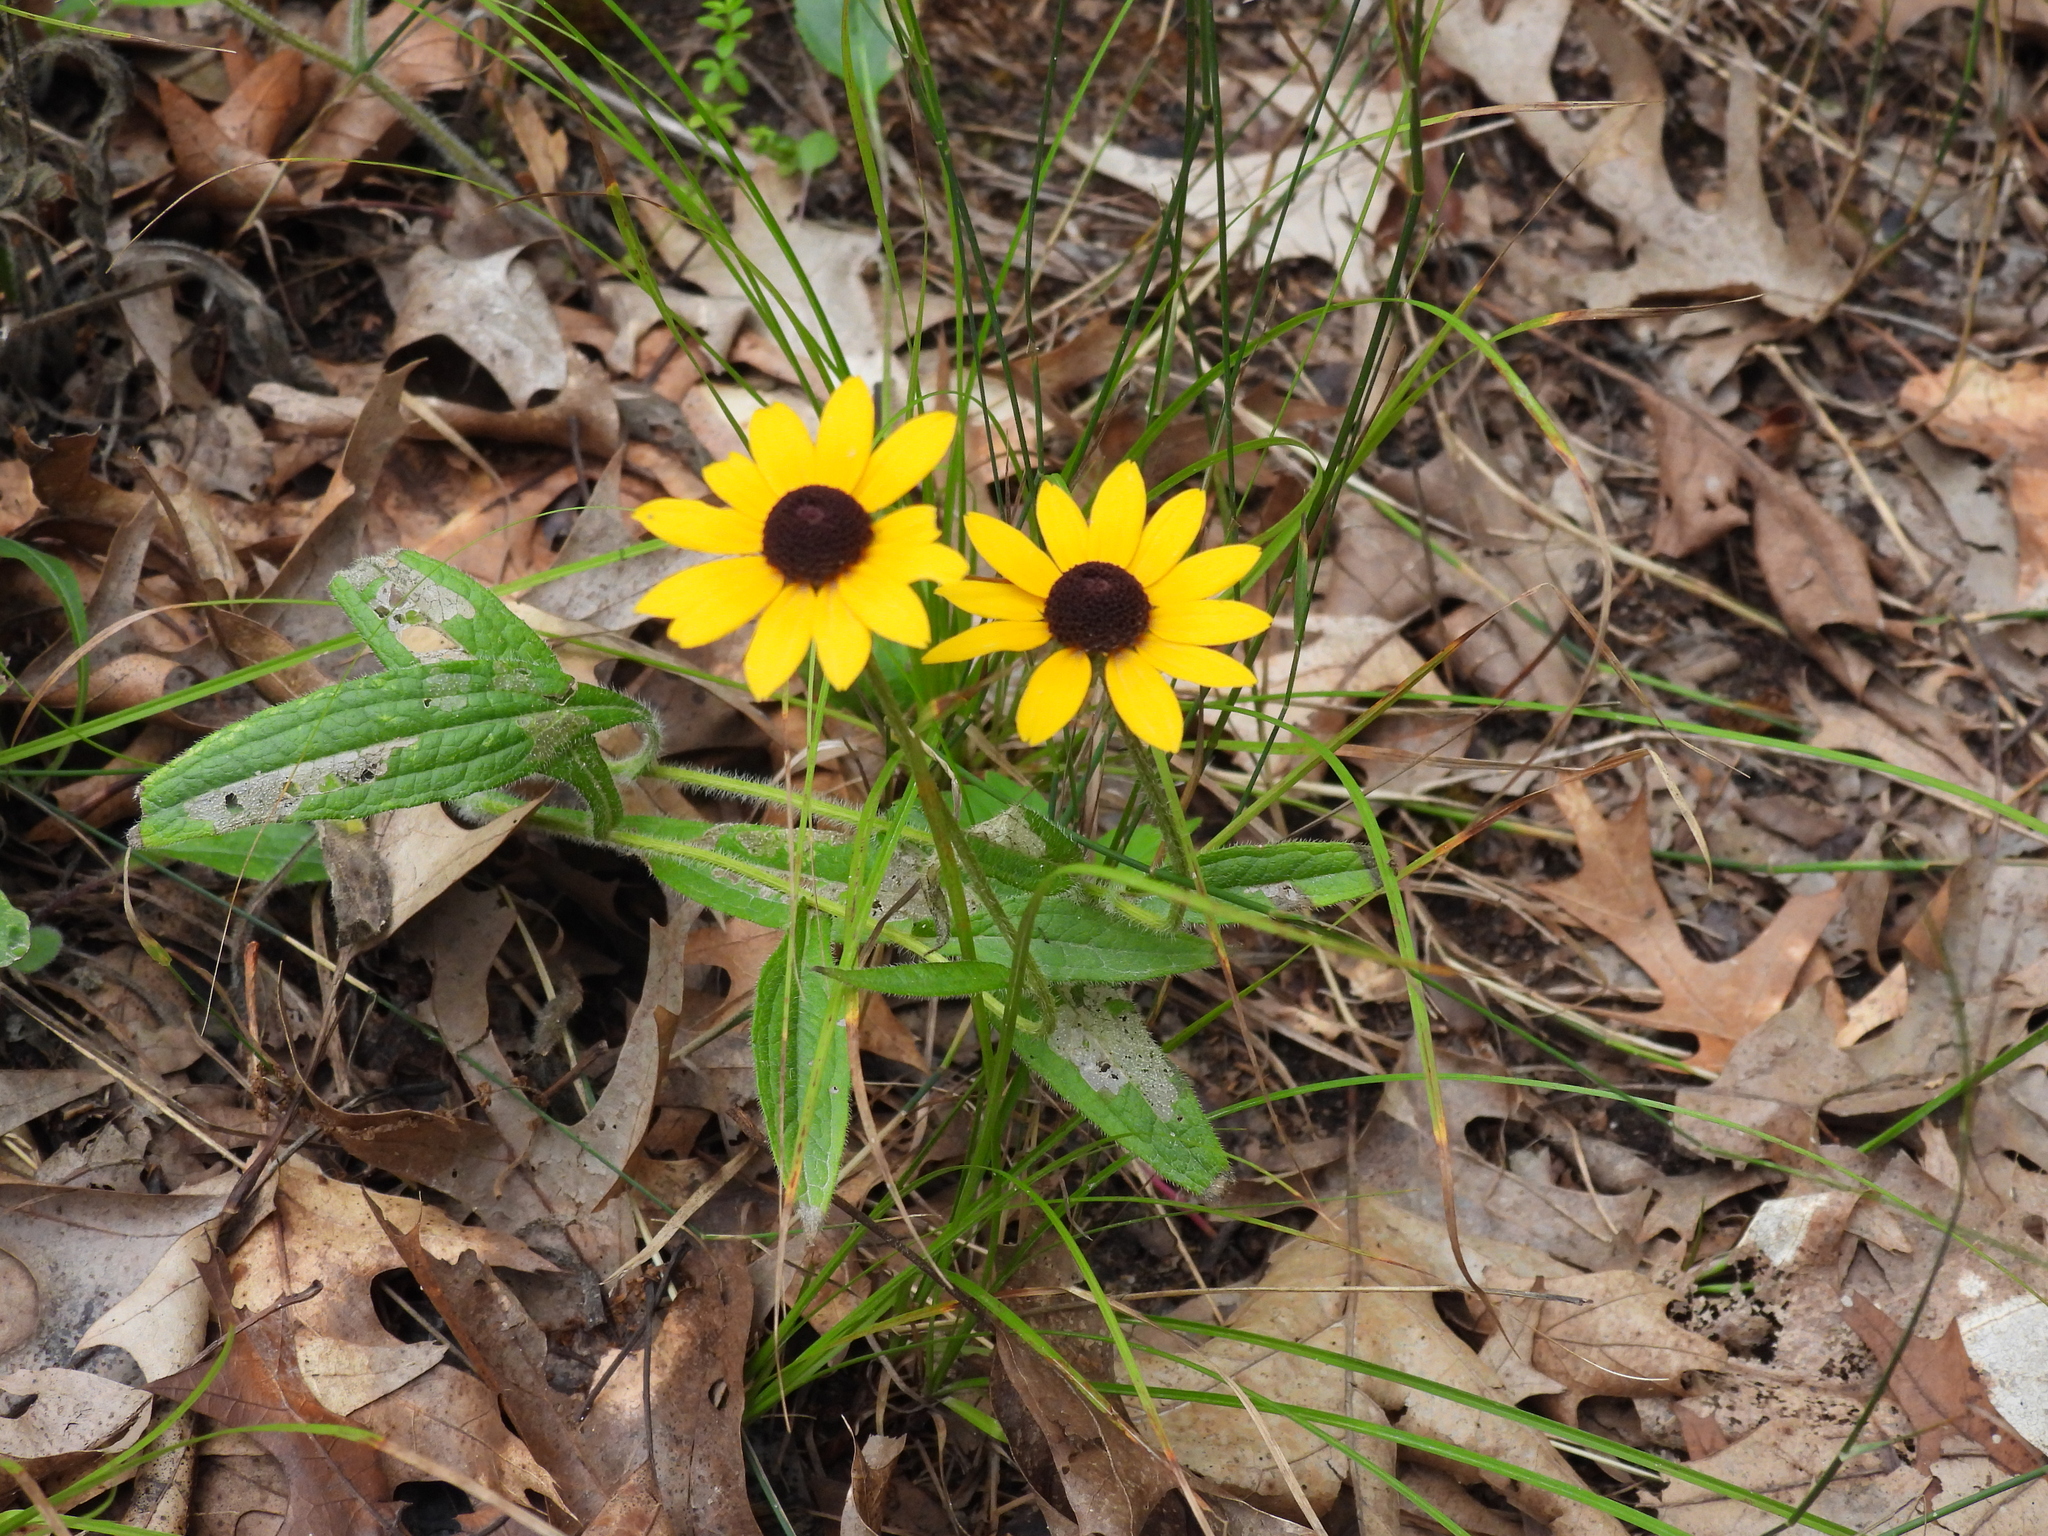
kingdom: Plantae
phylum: Tracheophyta
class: Magnoliopsida
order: Asterales
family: Asteraceae
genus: Rudbeckia
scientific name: Rudbeckia hirta
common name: Black-eyed-susan
